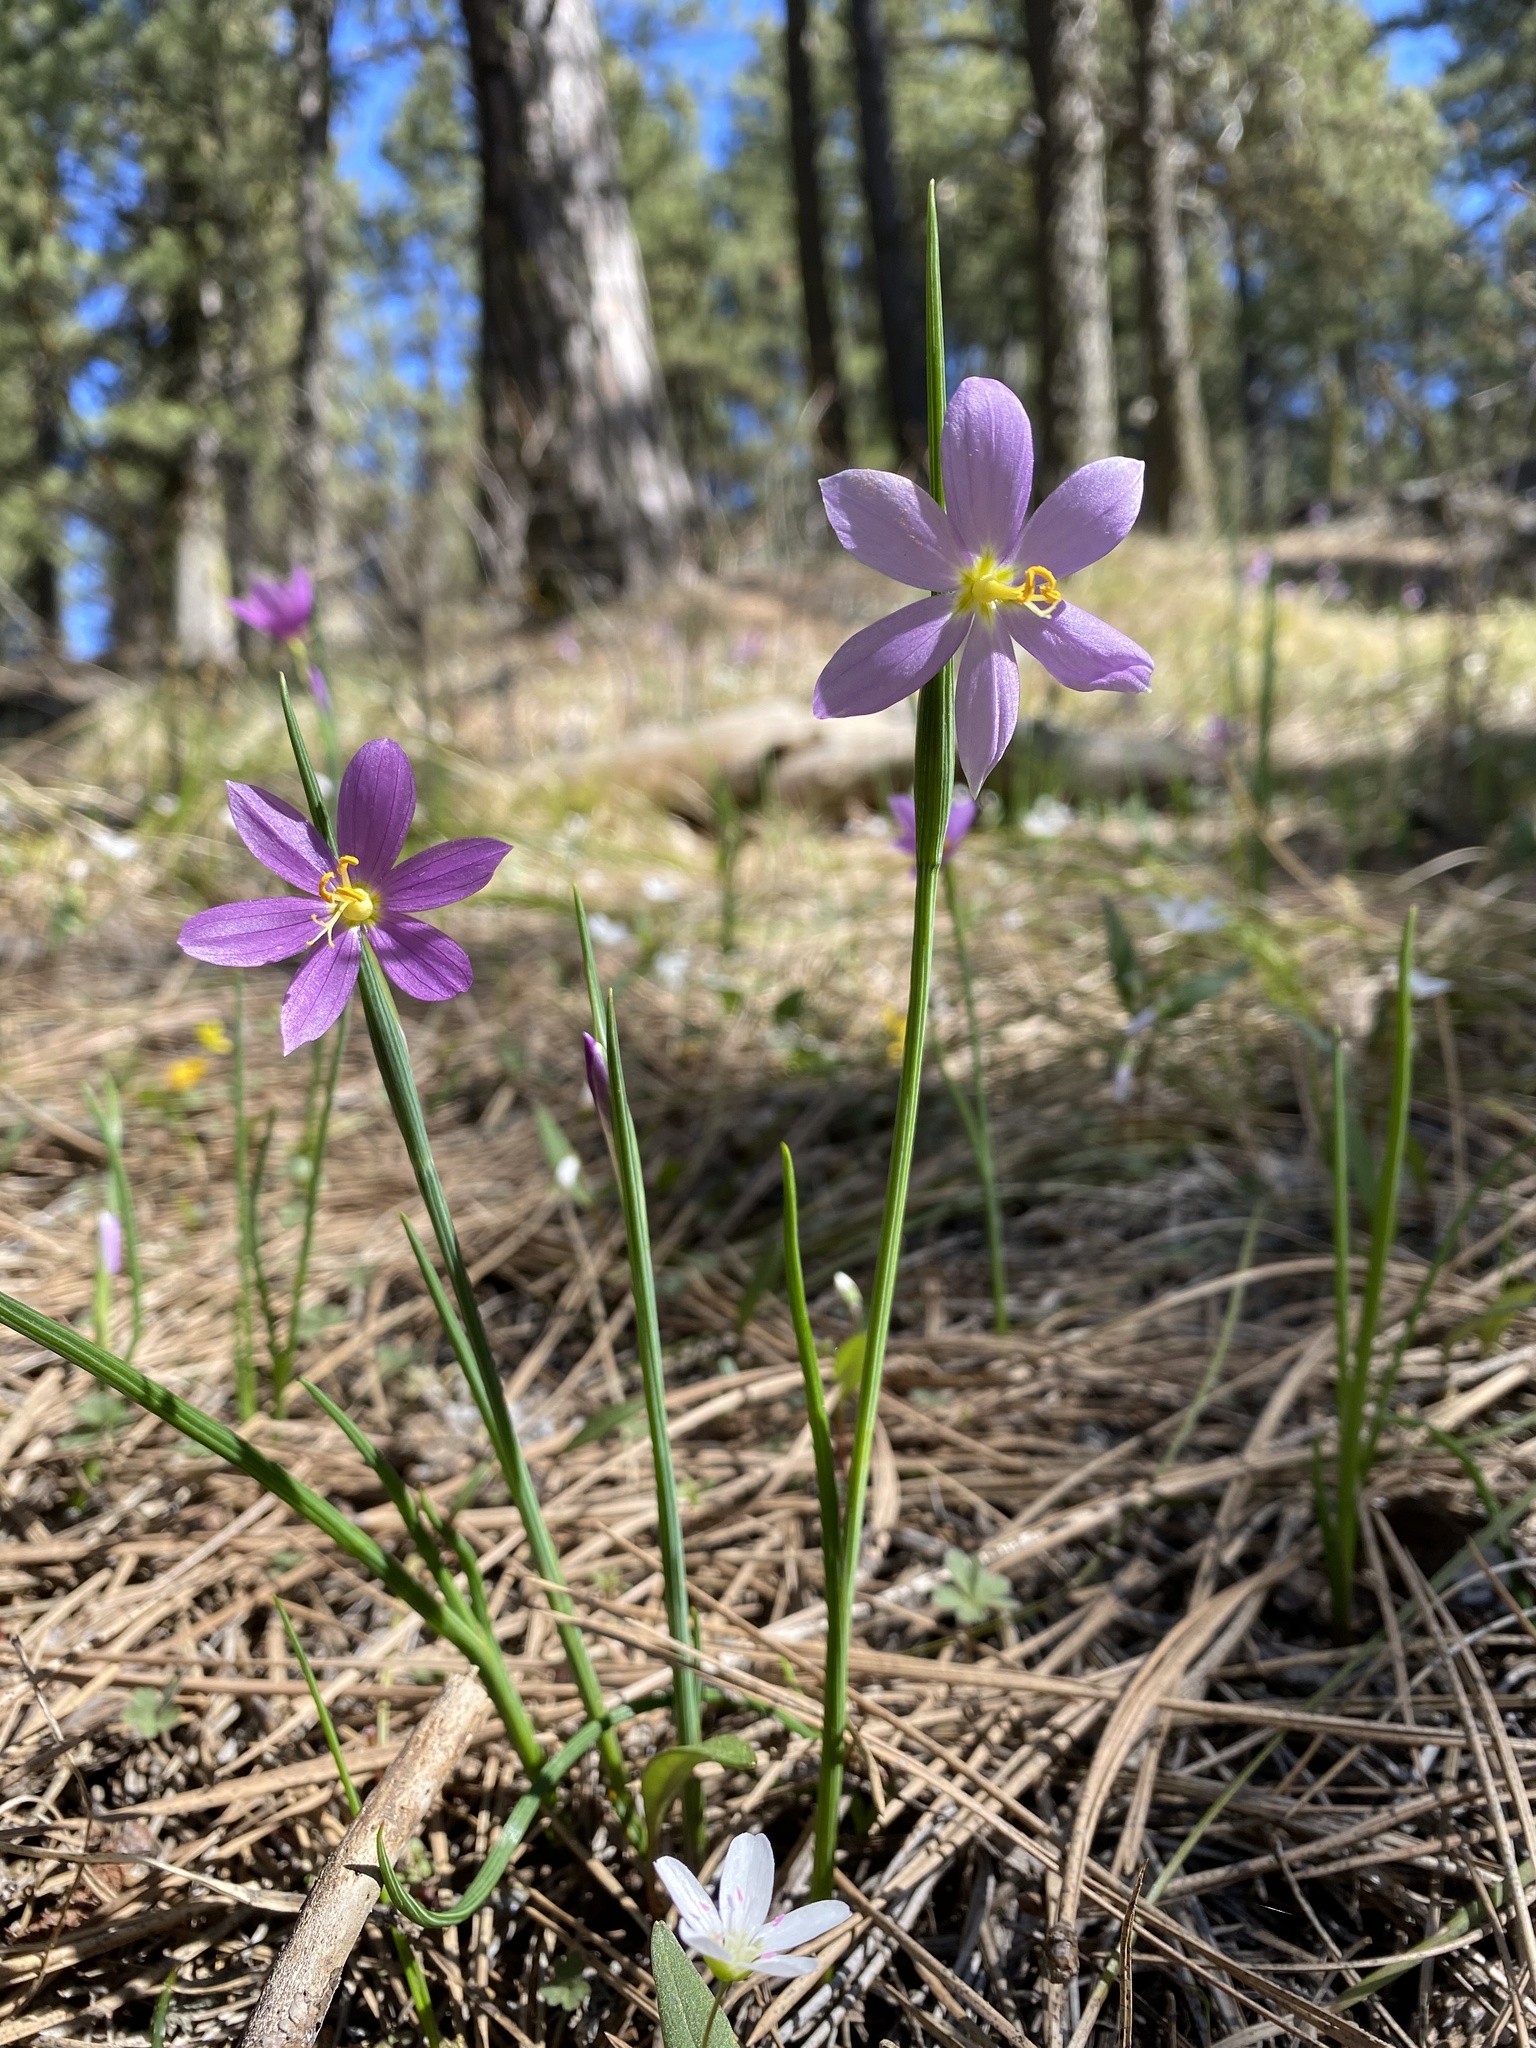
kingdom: Plantae
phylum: Tracheophyta
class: Liliopsida
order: Asparagales
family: Iridaceae
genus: Olsynium
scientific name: Olsynium douglasii
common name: Douglas' grasswidow
